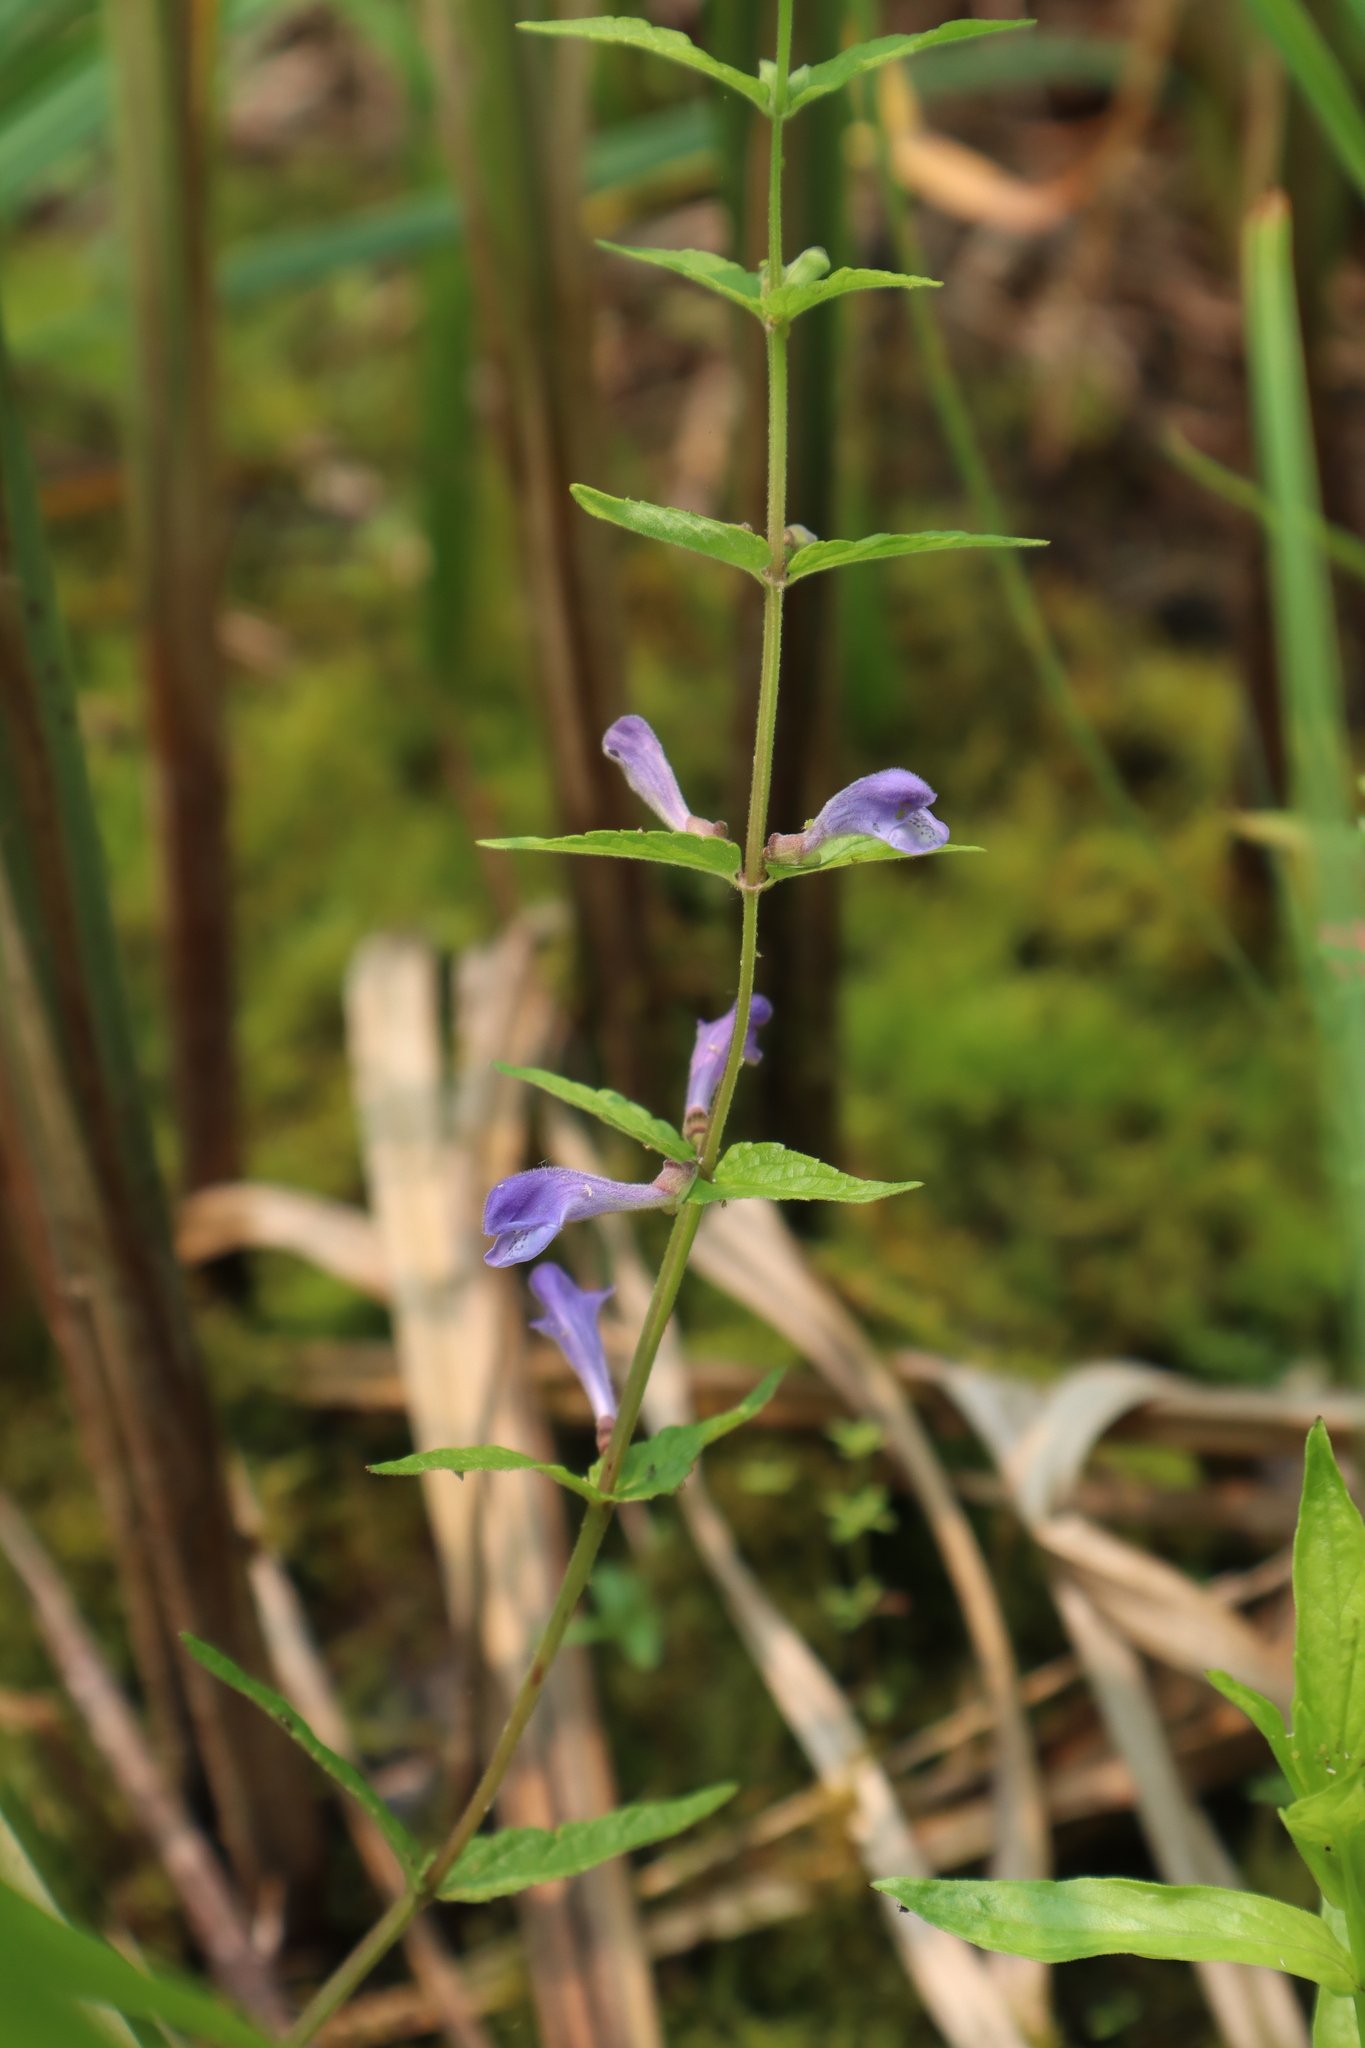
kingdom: Plantae
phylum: Tracheophyta
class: Magnoliopsida
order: Lamiales
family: Lamiaceae
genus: Scutellaria
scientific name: Scutellaria galericulata
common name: Skullcap
